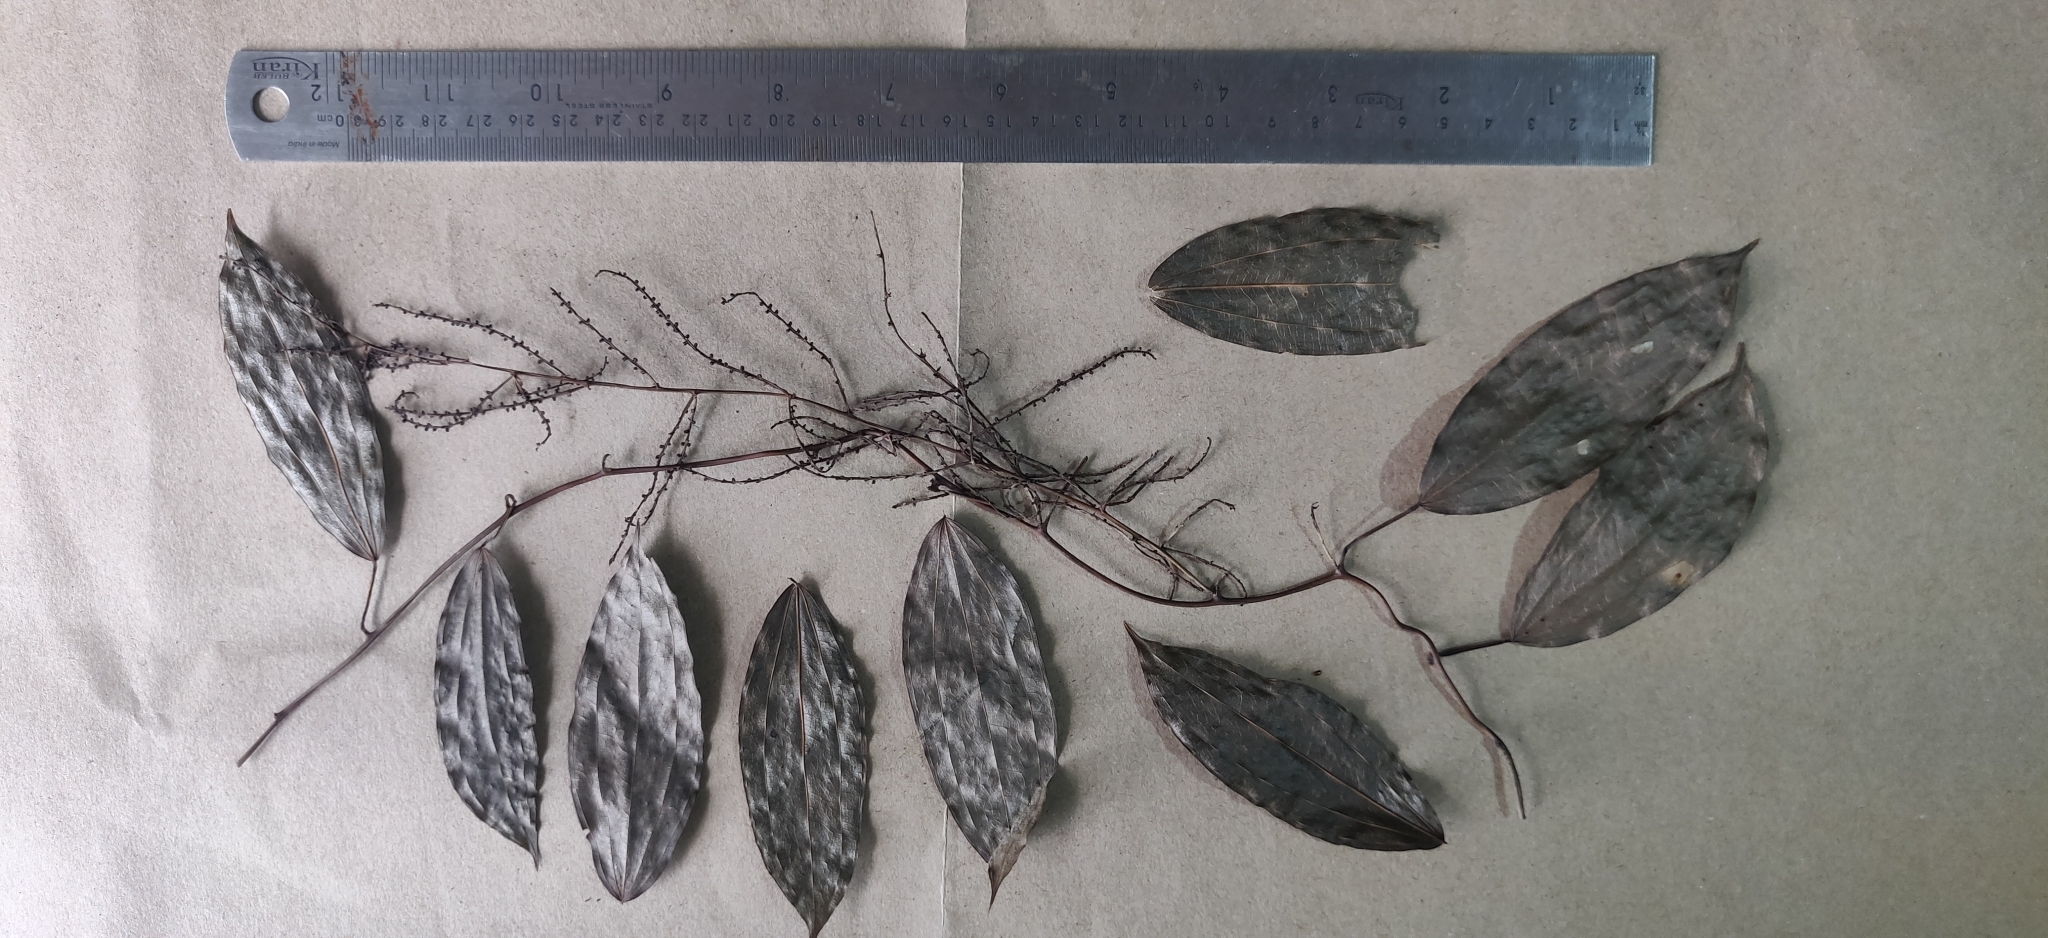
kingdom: Plantae
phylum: Tracheophyta
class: Liliopsida
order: Dioscoreales
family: Dioscoreaceae
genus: Dioscorea
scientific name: Dioscorea oppositifolia
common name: Chinese yam
